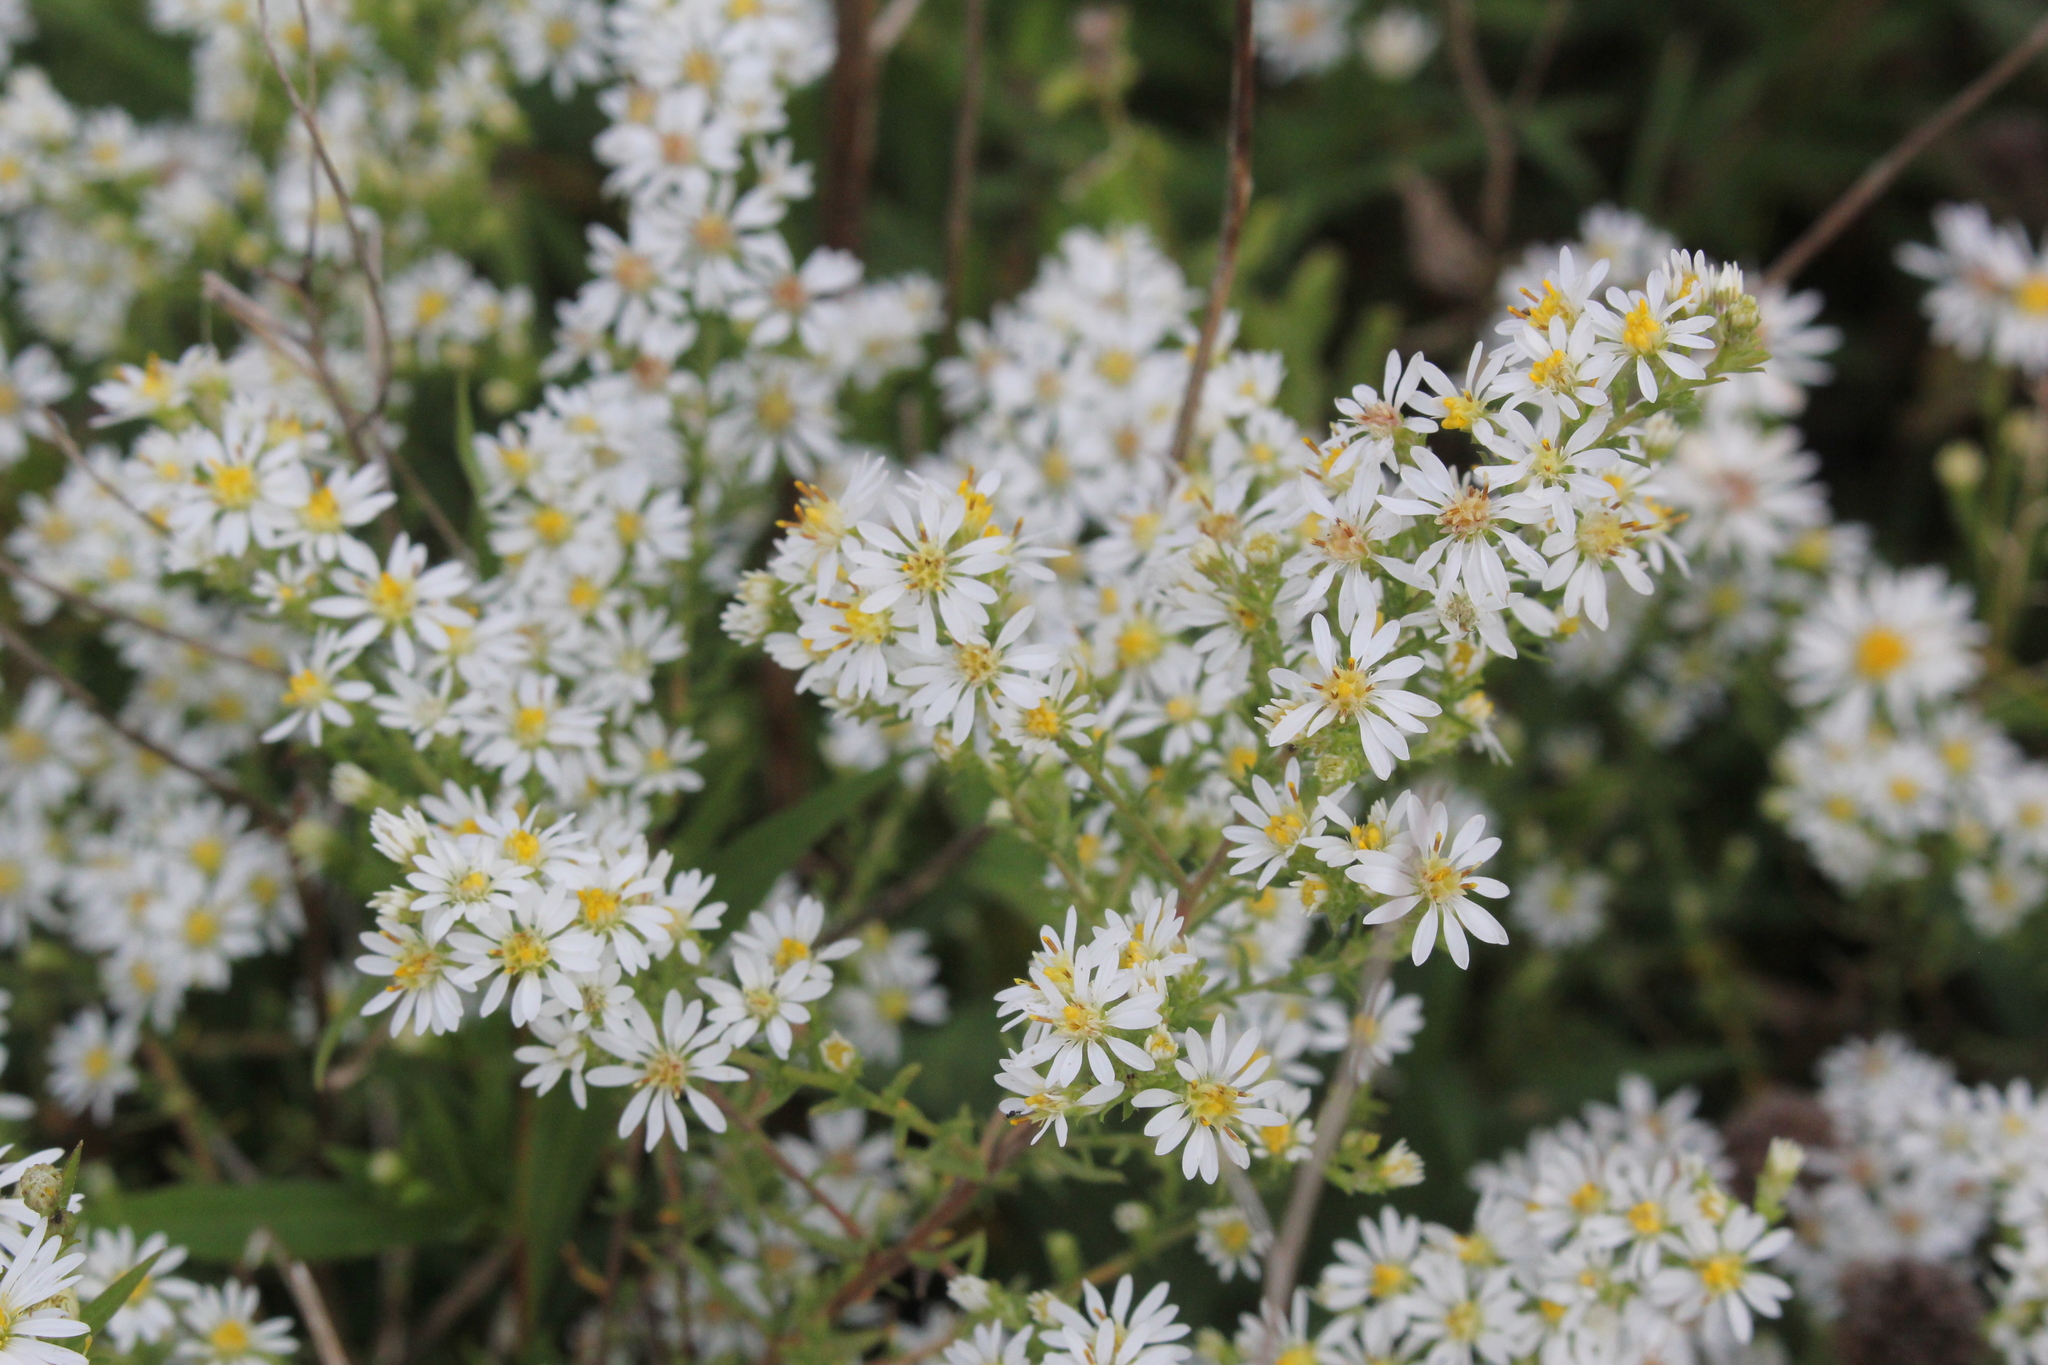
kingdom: Plantae
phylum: Tracheophyta
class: Magnoliopsida
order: Asterales
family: Asteraceae
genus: Symphyotrichum
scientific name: Symphyotrichum ericoides
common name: Heath aster
